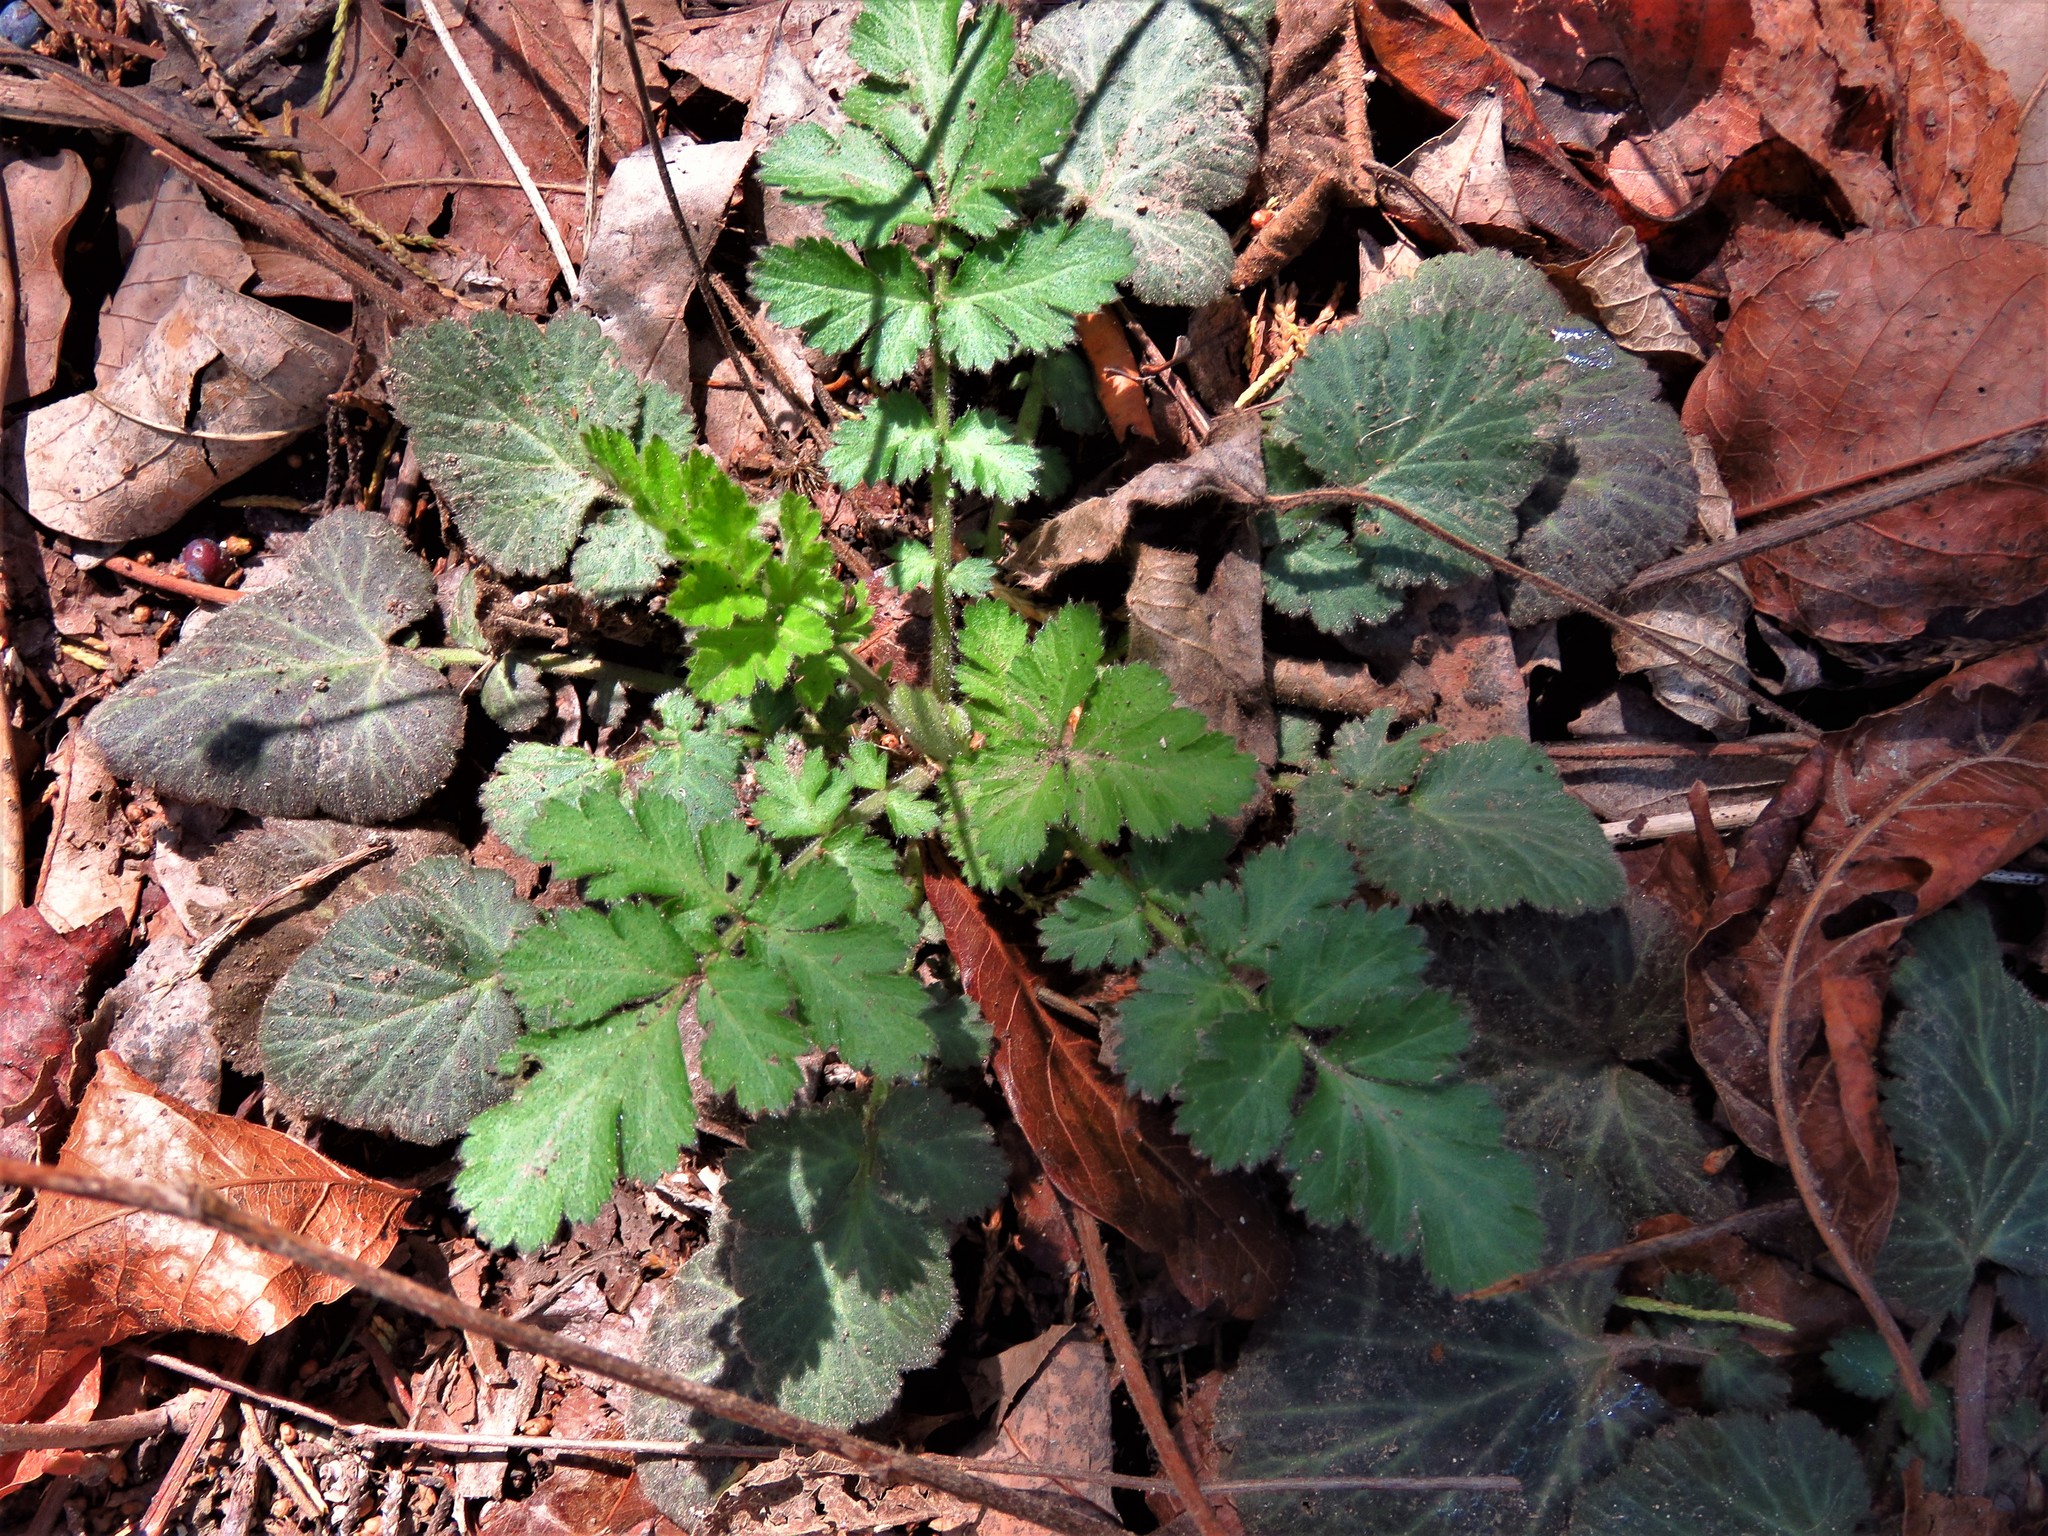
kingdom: Plantae
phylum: Tracheophyta
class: Magnoliopsida
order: Rosales
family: Rosaceae
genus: Geum
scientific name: Geum canadense
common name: White avens
